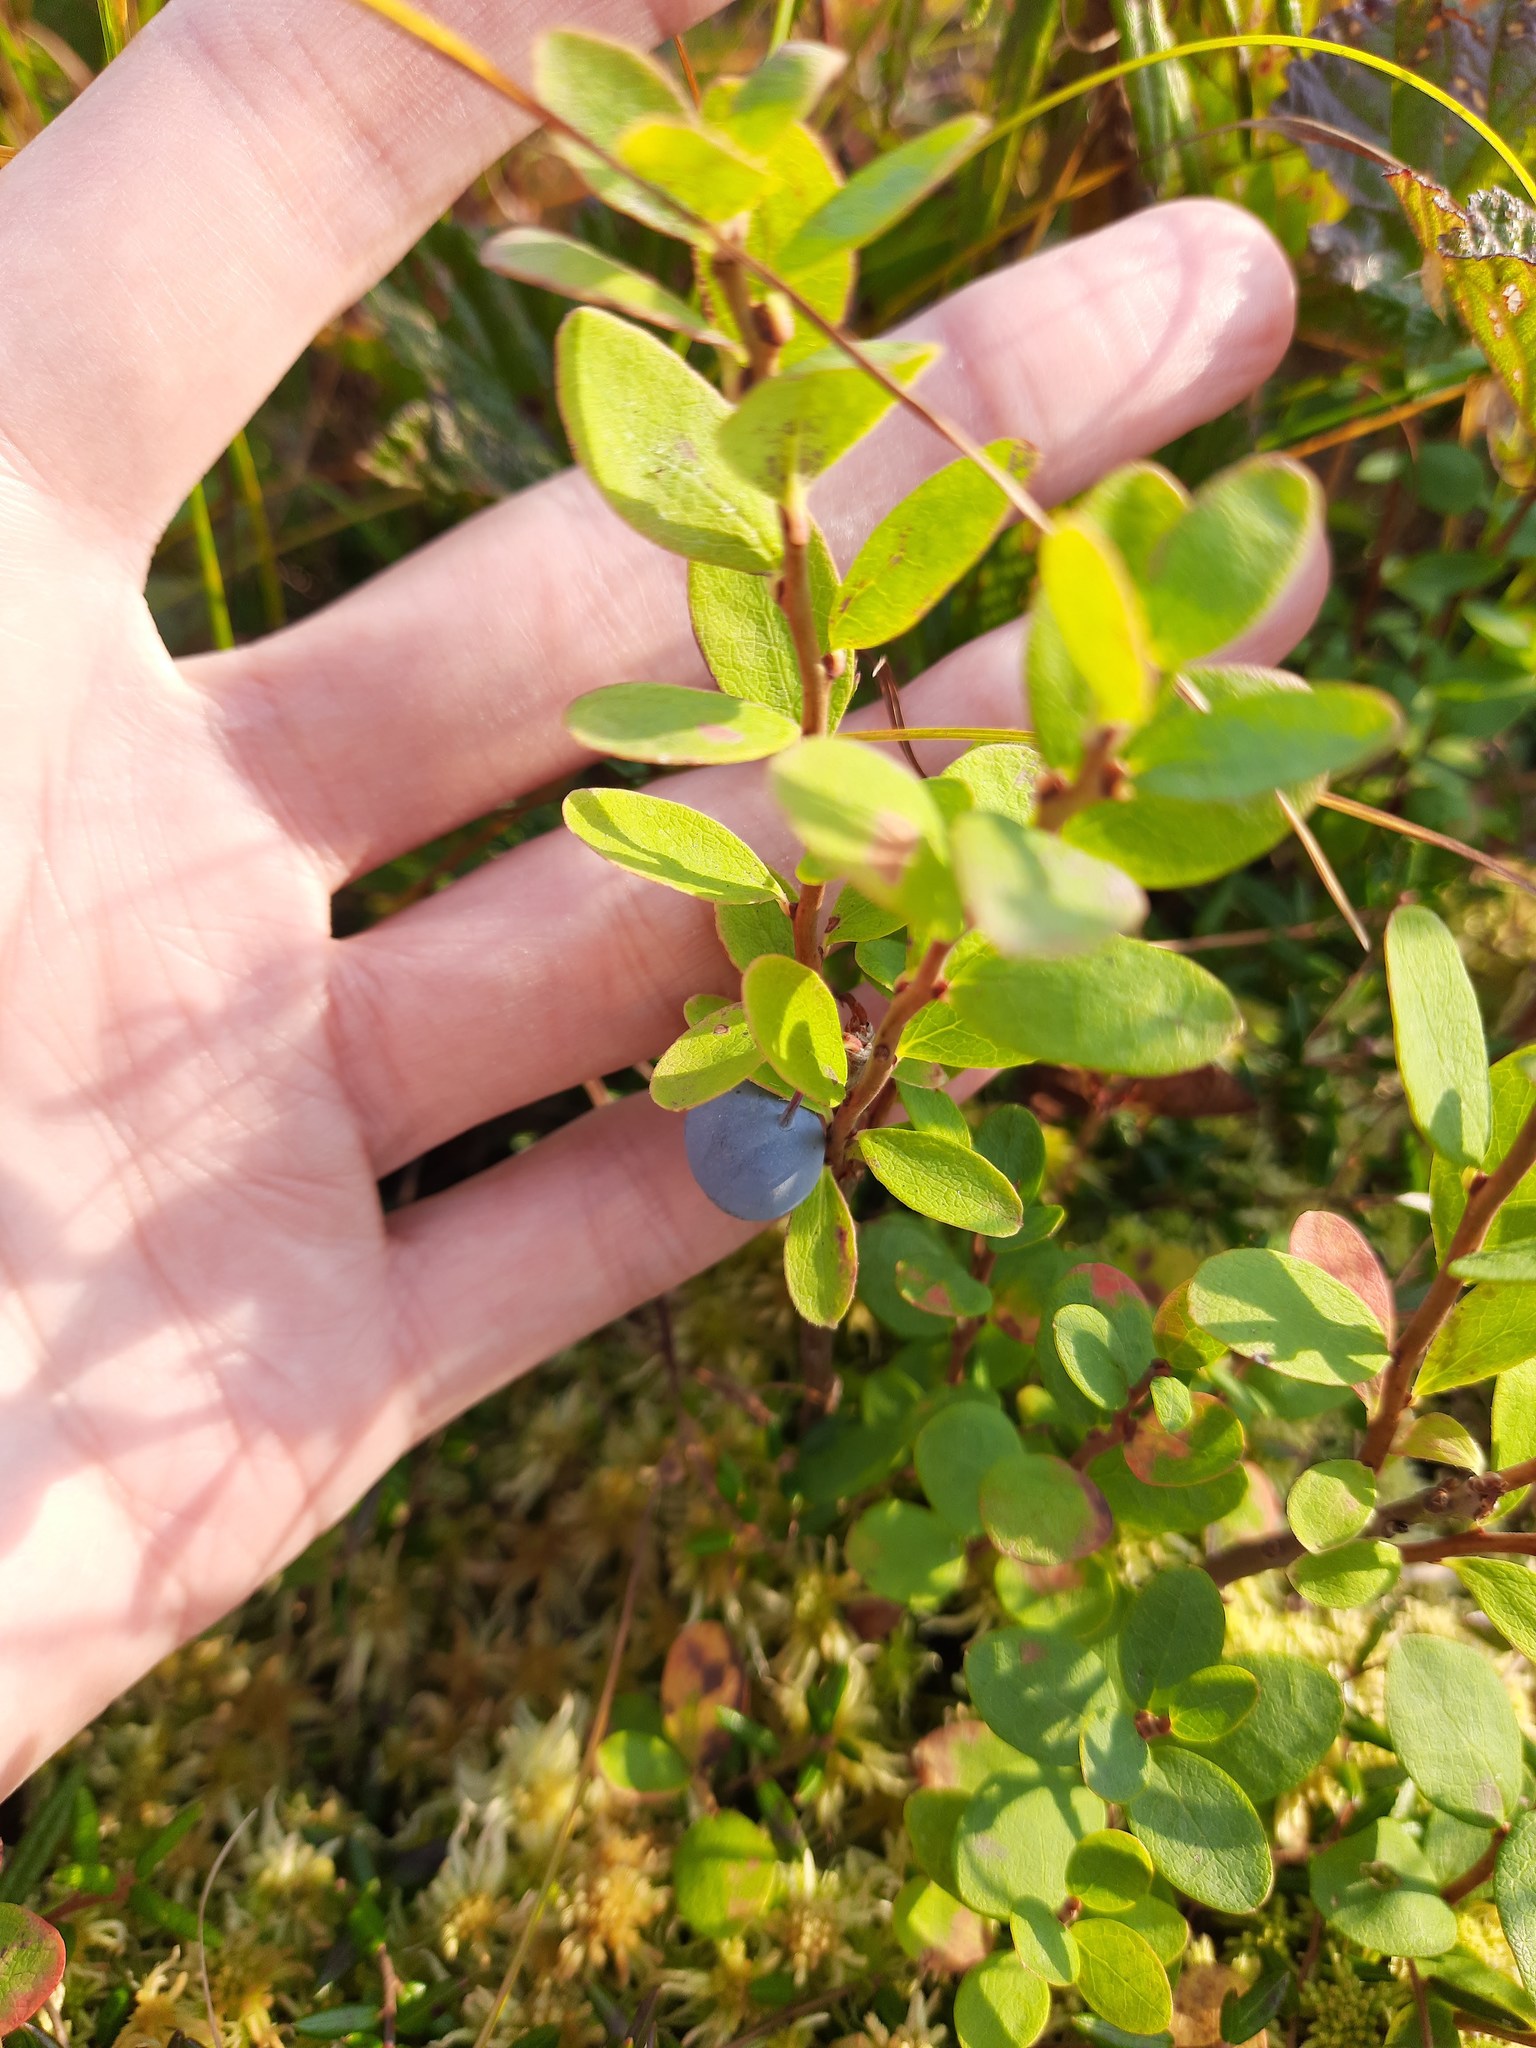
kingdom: Plantae
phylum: Tracheophyta
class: Magnoliopsida
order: Ericales
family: Ericaceae
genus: Vaccinium
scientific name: Vaccinium uliginosum
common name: Bog bilberry
